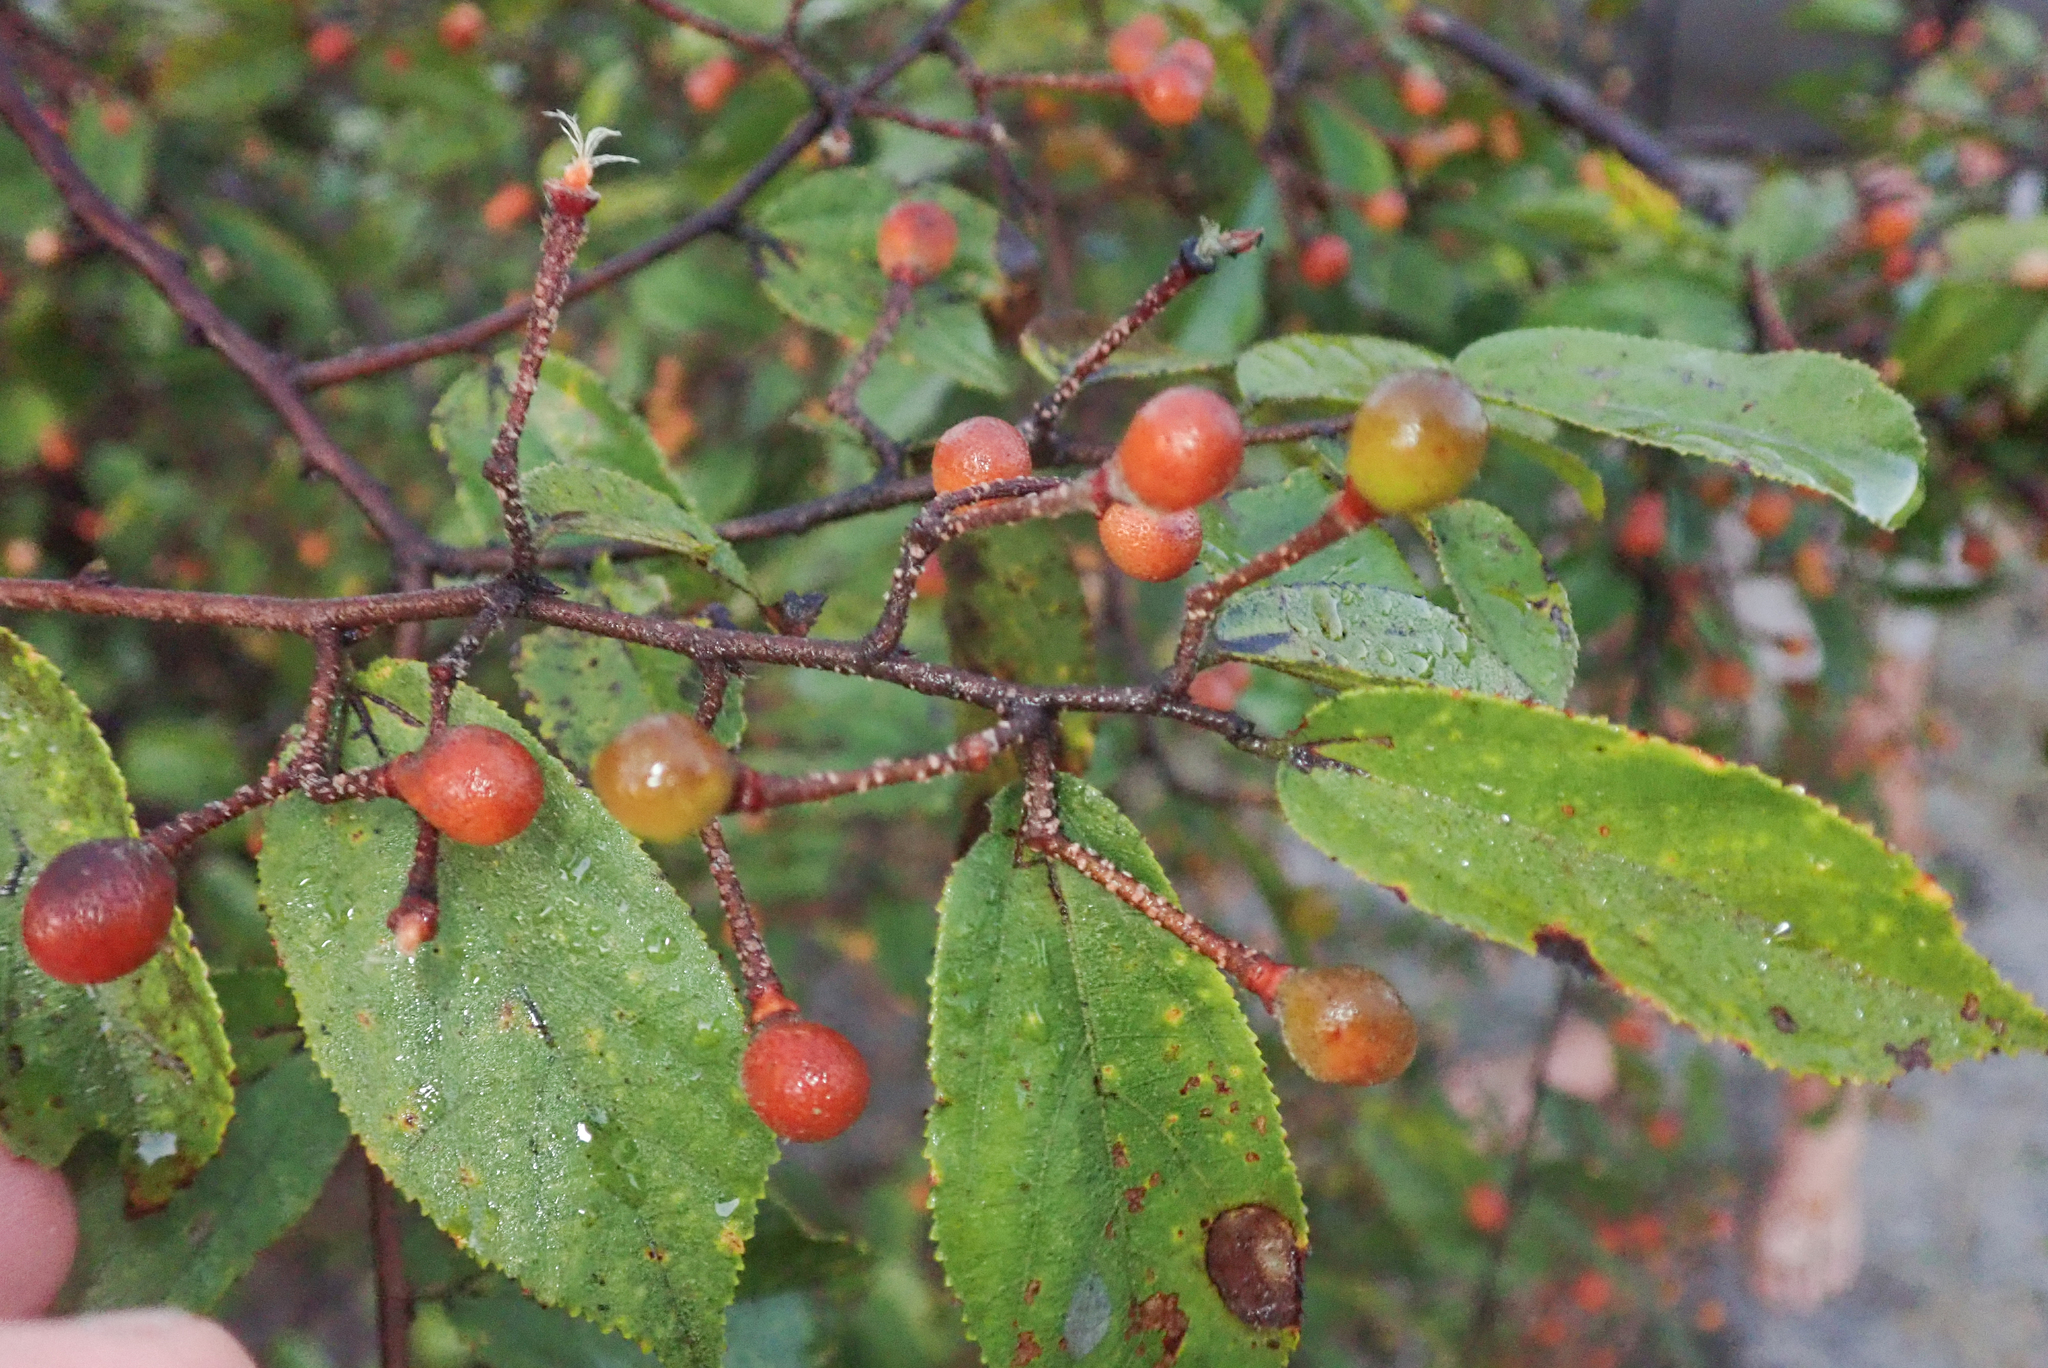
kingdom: Plantae
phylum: Tracheophyta
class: Magnoliopsida
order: Malvales
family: Malvaceae
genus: Grewia
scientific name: Grewia flavescens
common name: Sandpaper raisin
